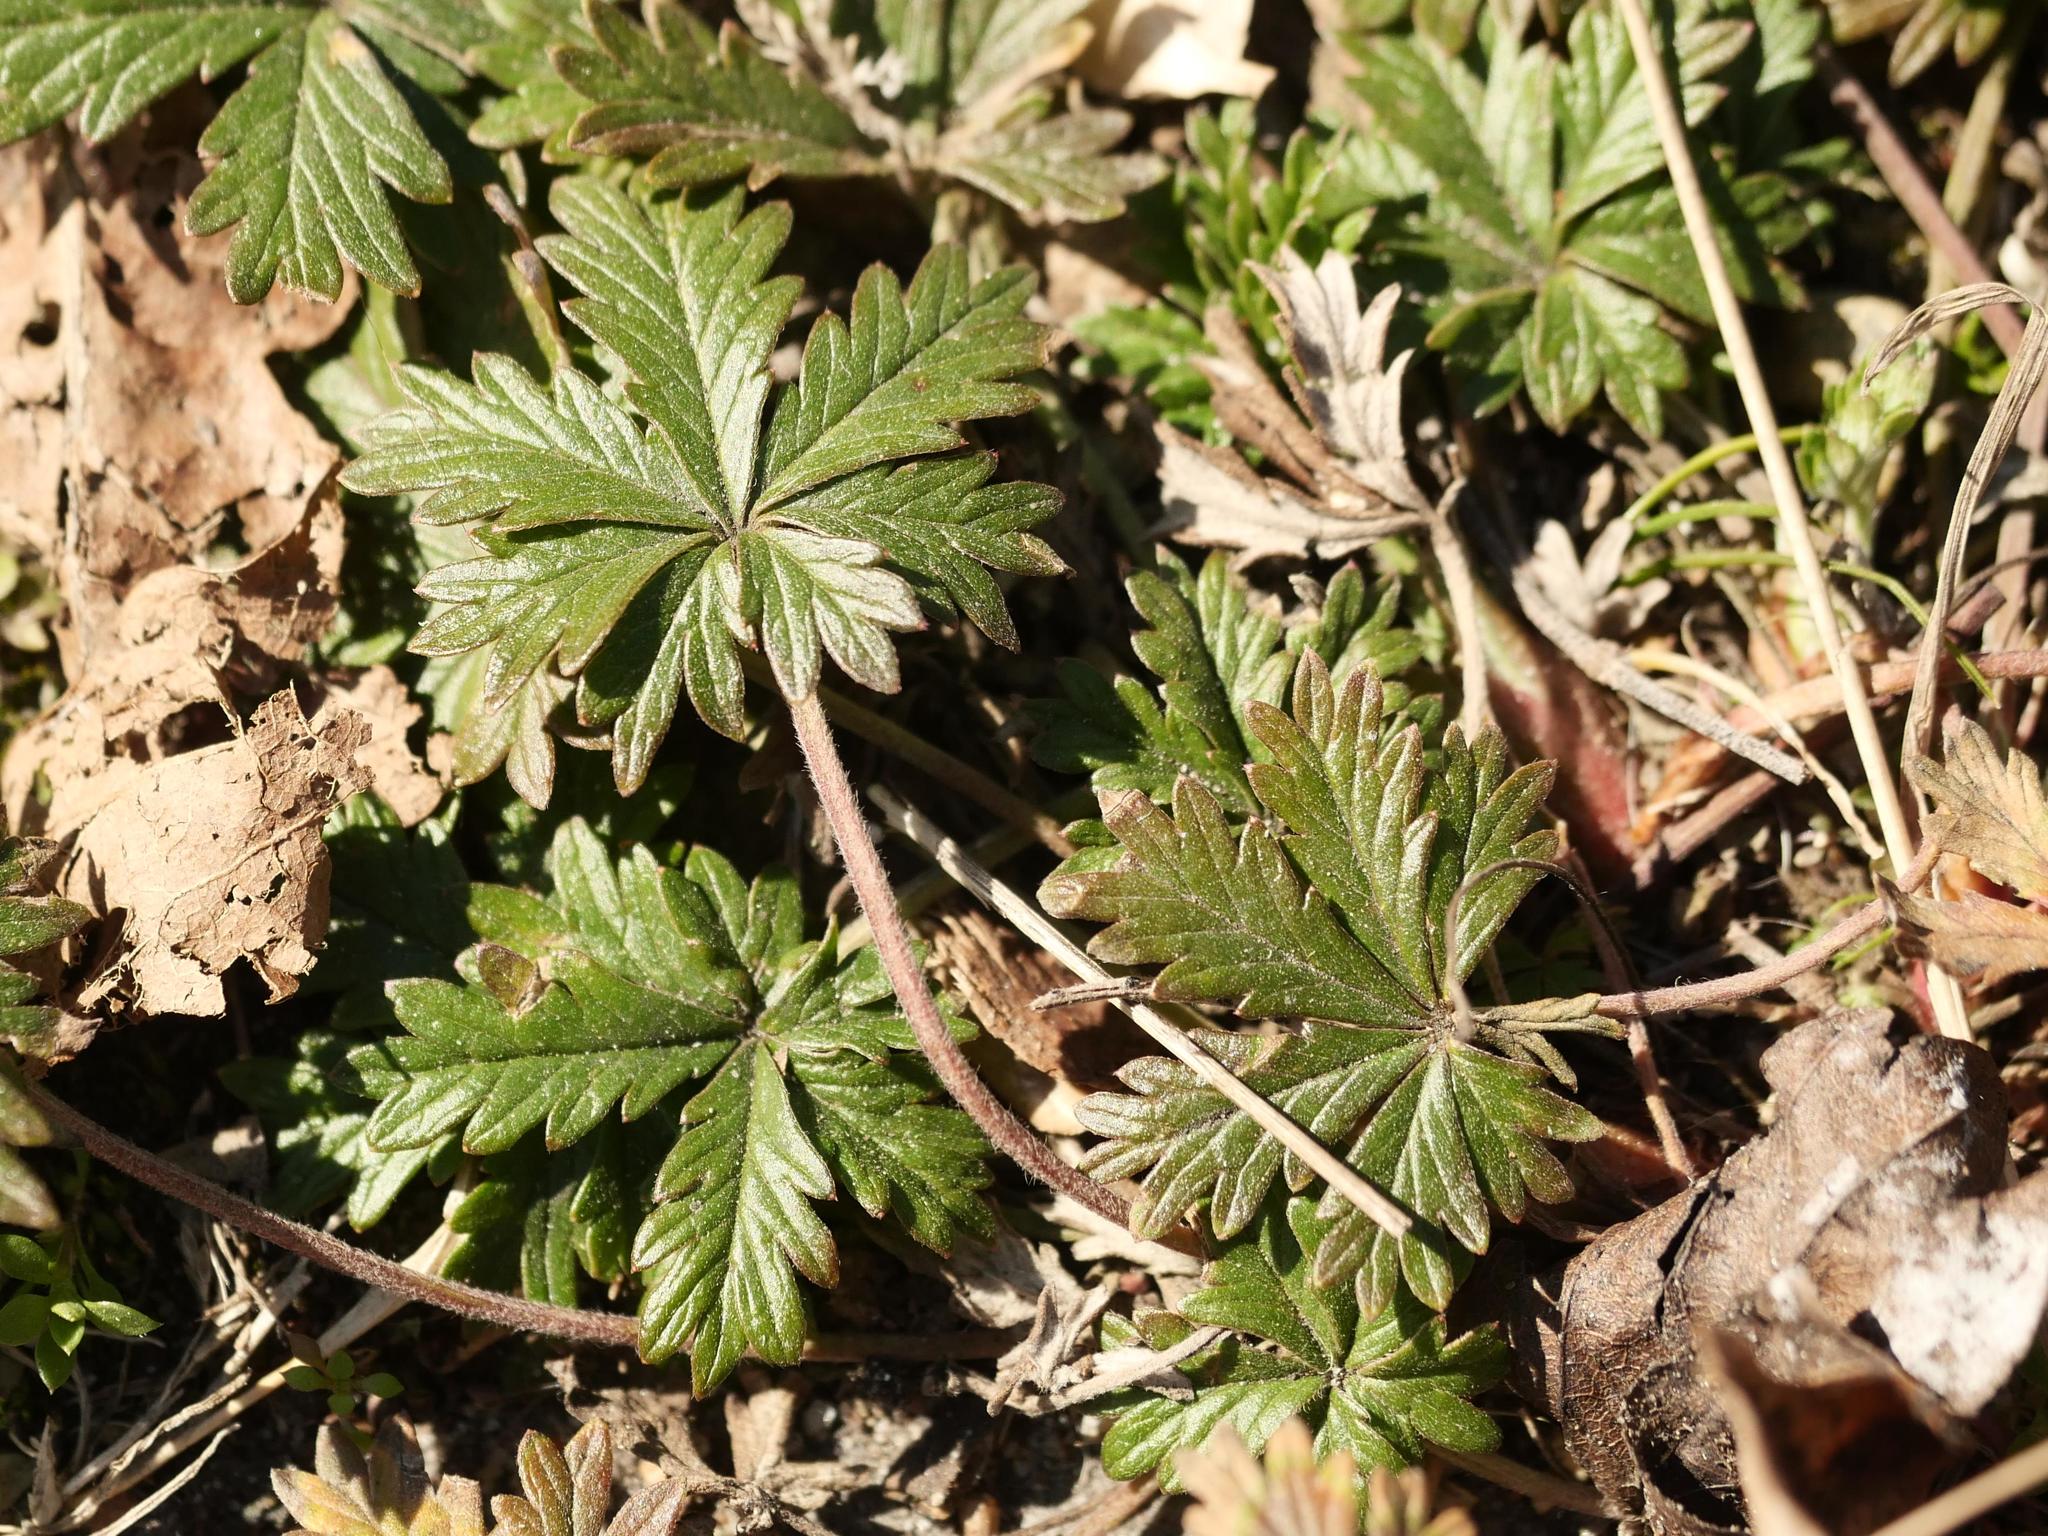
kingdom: Plantae
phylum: Tracheophyta
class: Magnoliopsida
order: Rosales
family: Rosaceae
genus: Potentilla
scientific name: Potentilla argentea
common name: Hoary cinquefoil
